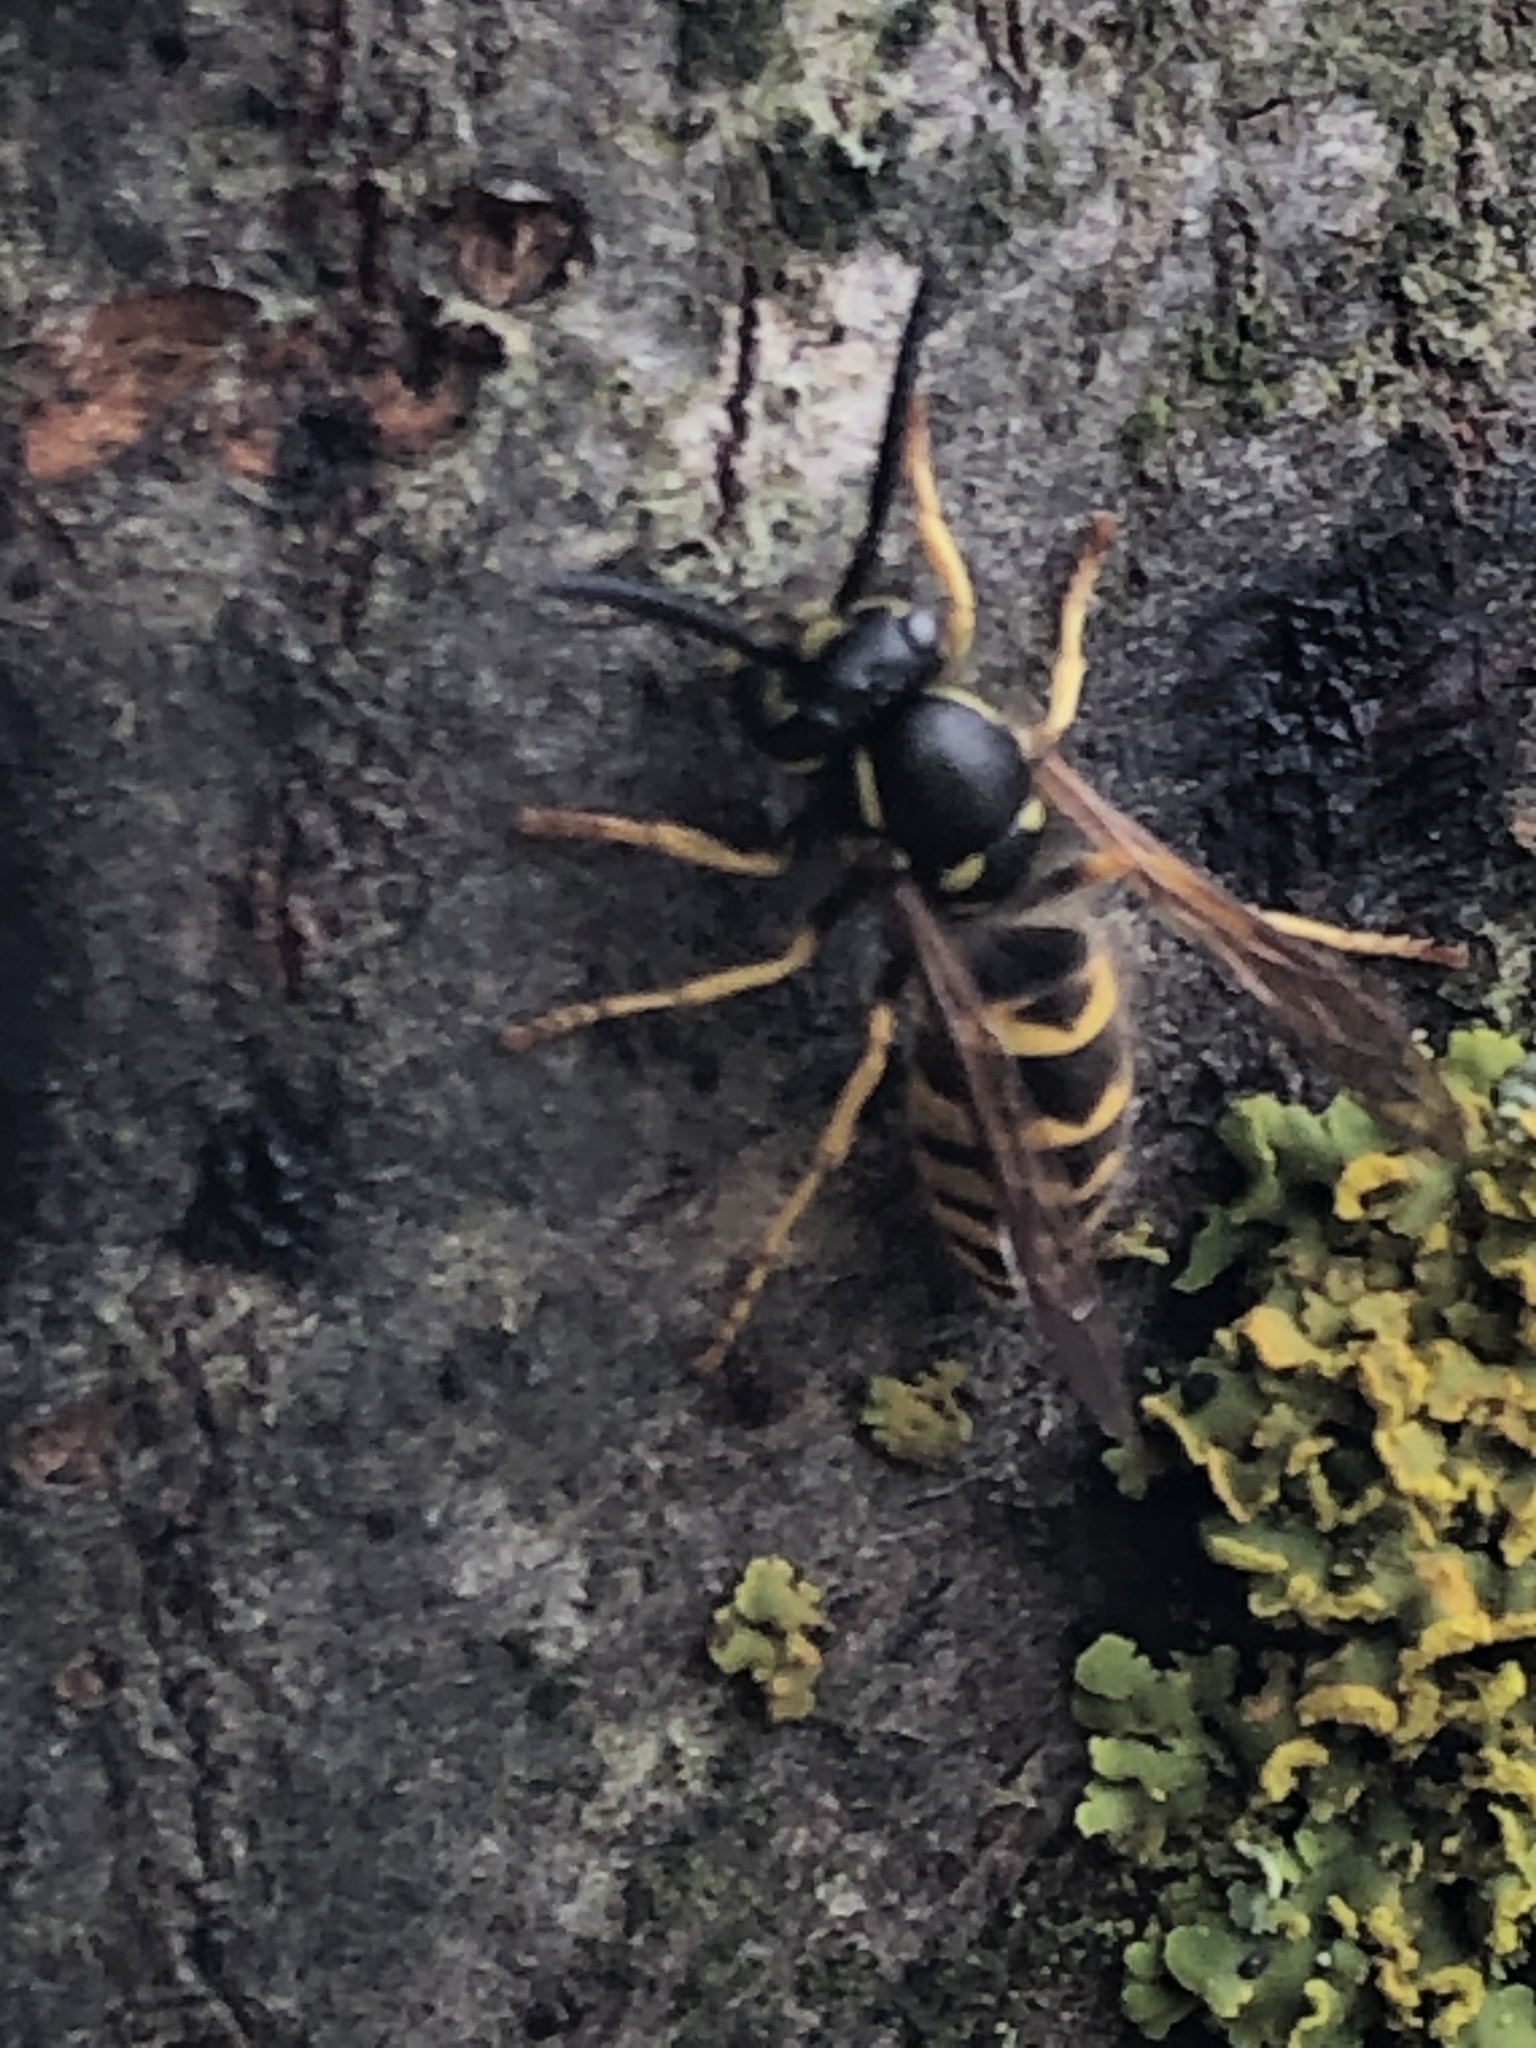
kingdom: Animalia
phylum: Arthropoda
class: Insecta
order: Hymenoptera
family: Vespidae
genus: Vespula
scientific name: Vespula alascensis
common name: Alaska yellowjacket
